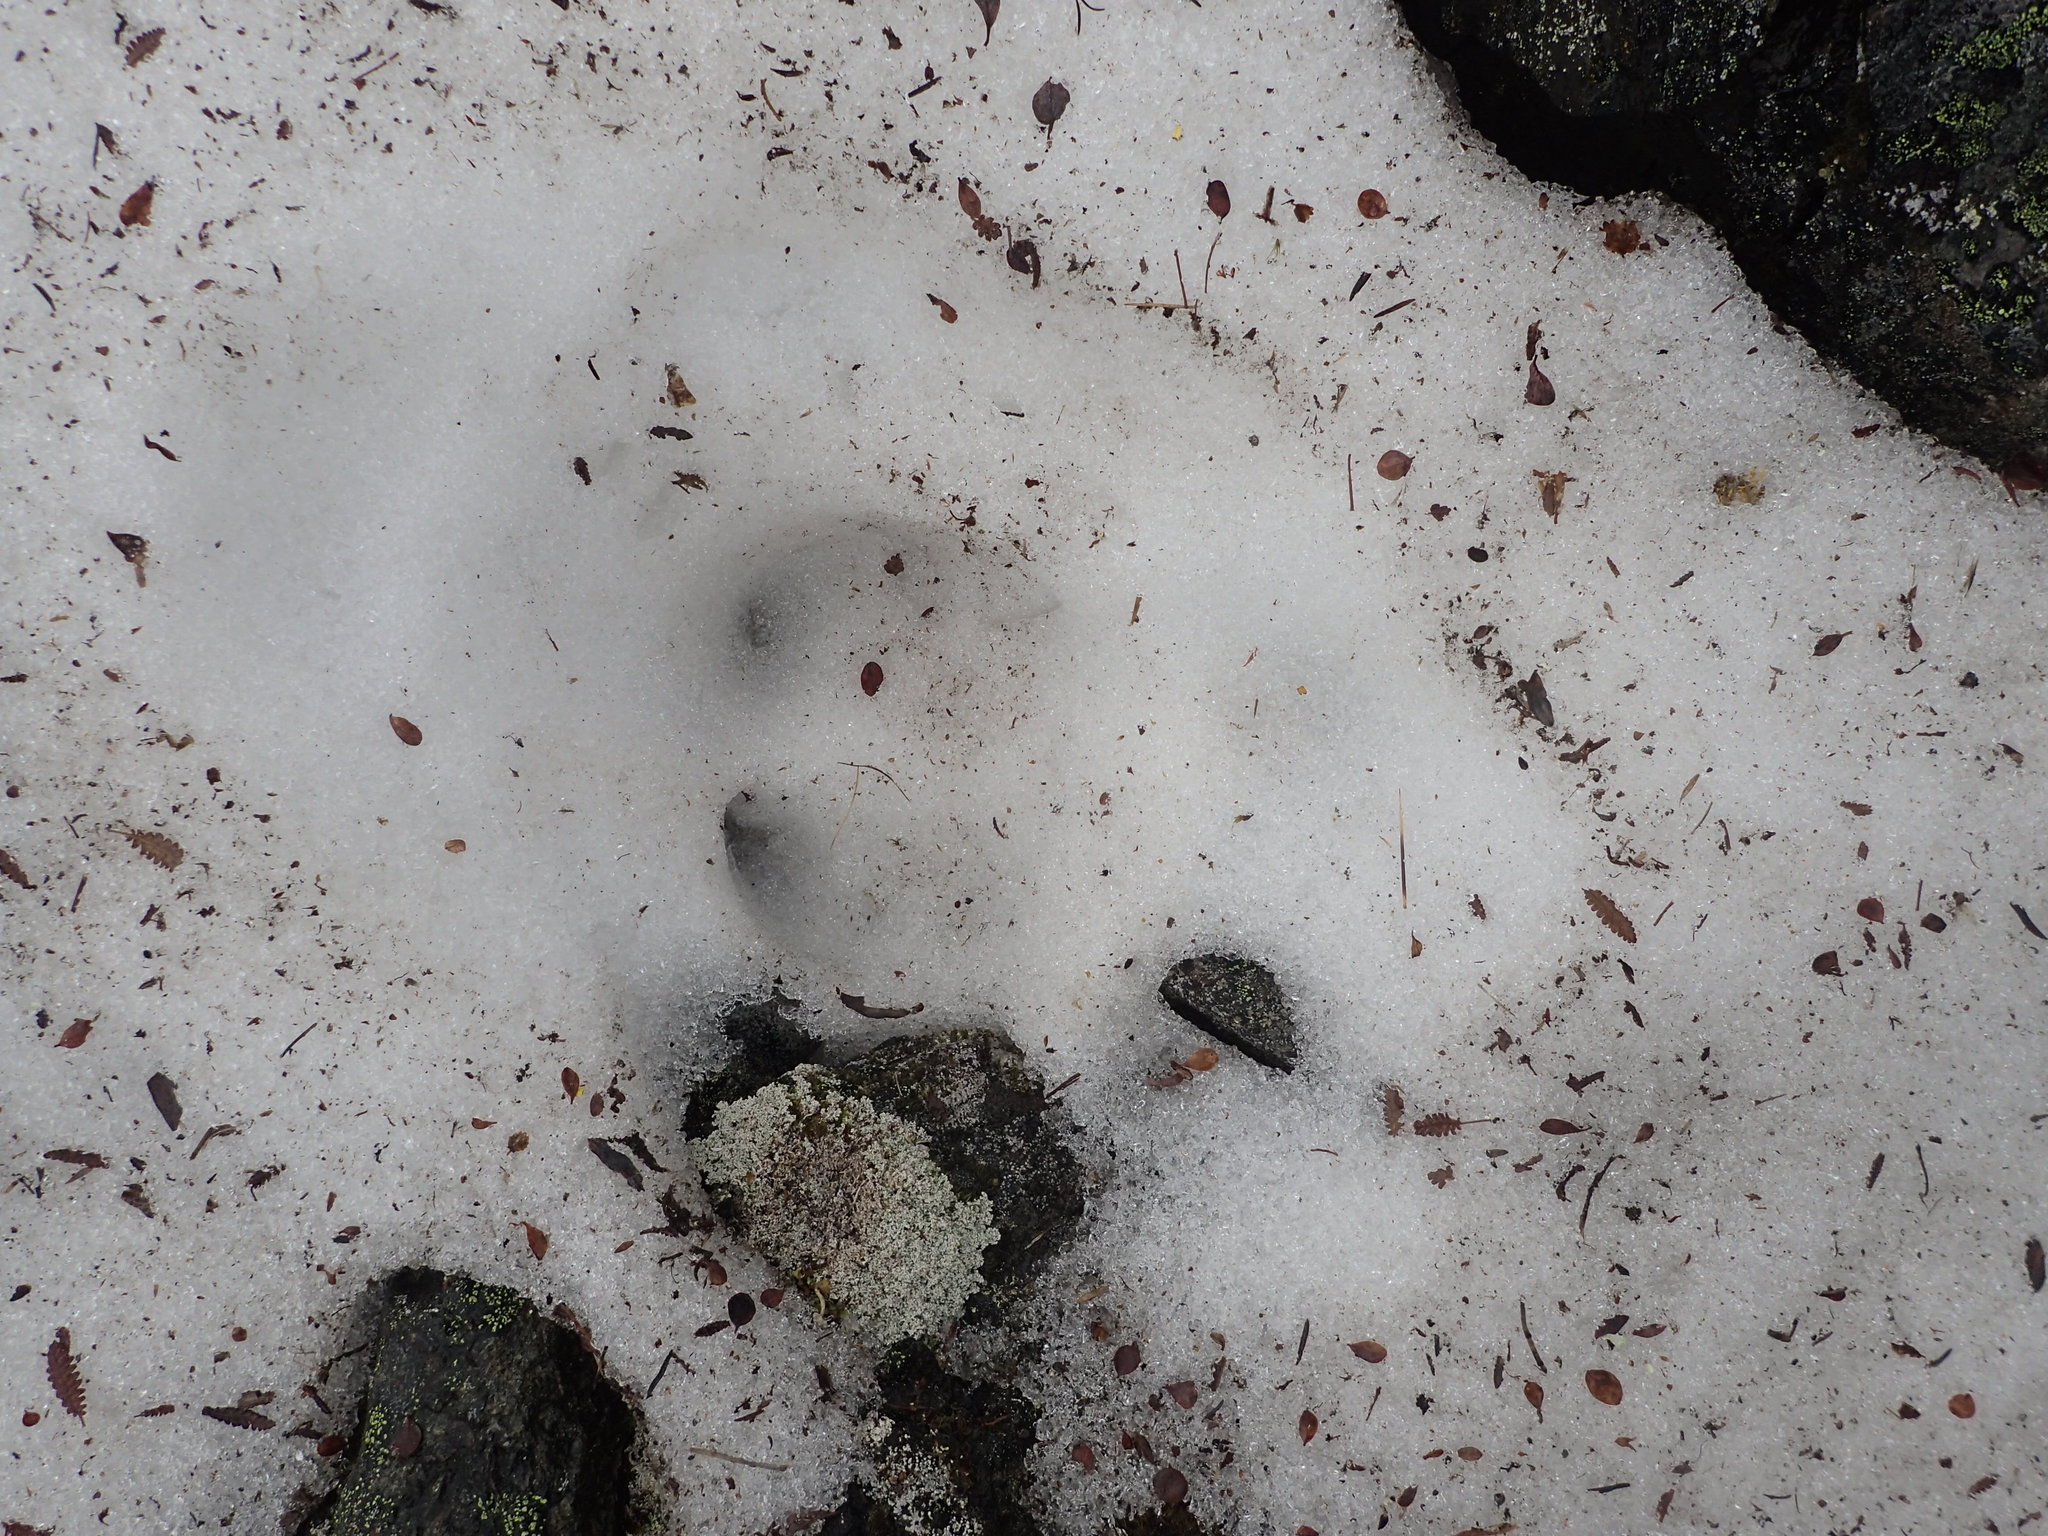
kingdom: Animalia
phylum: Chordata
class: Mammalia
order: Artiodactyla
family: Cervidae
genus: Rangifer
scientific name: Rangifer tarandus
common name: Reindeer
